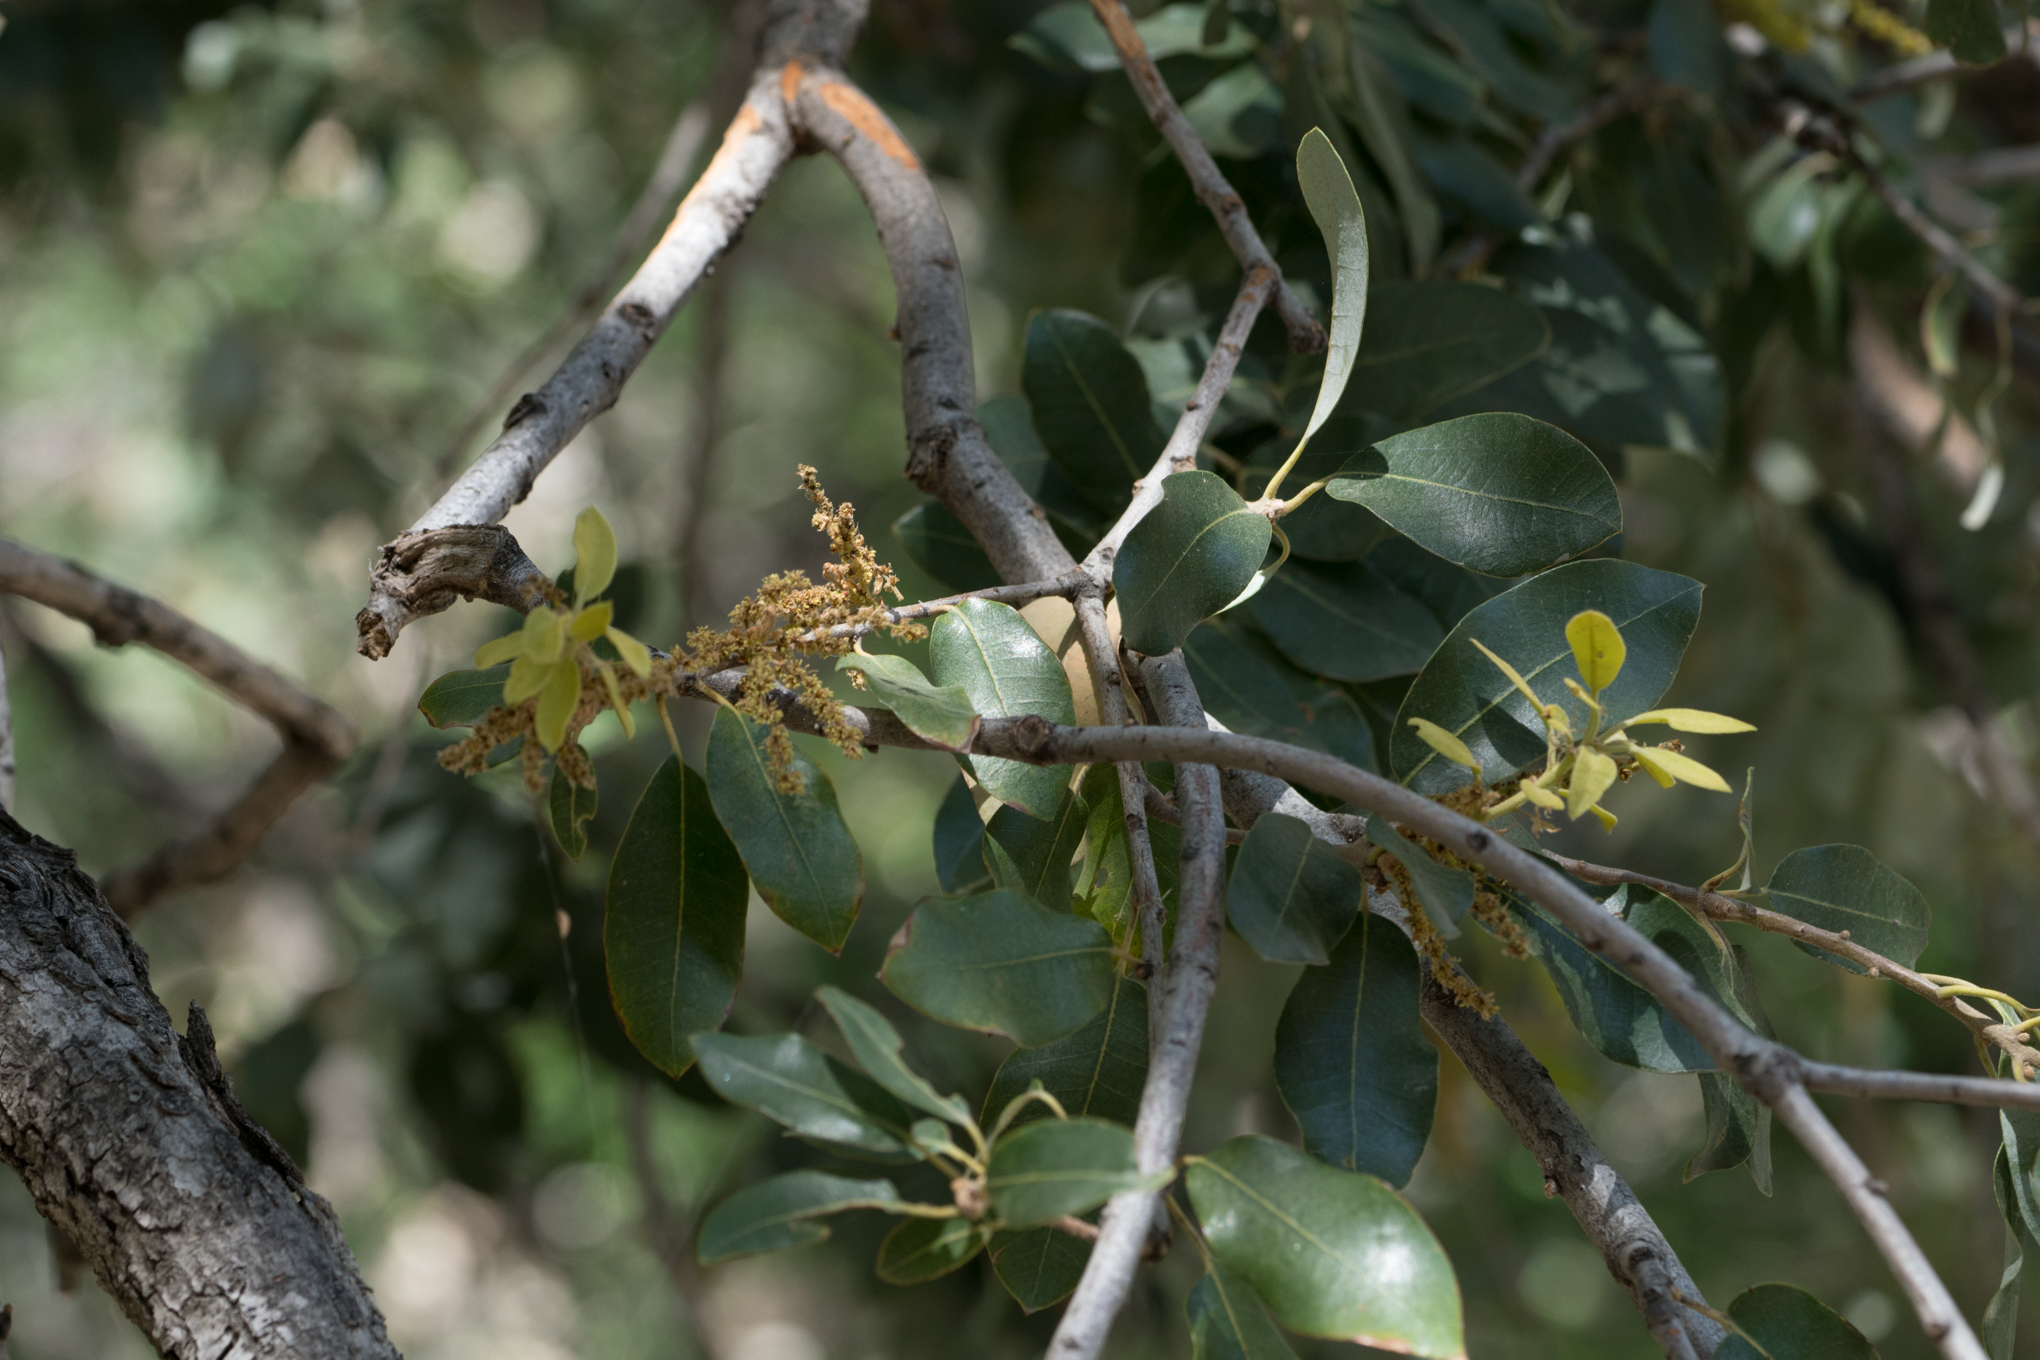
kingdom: Plantae
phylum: Tracheophyta
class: Magnoliopsida
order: Fagales
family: Fagaceae
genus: Quercus
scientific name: Quercus chrysolepis
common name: Canyon live oak
